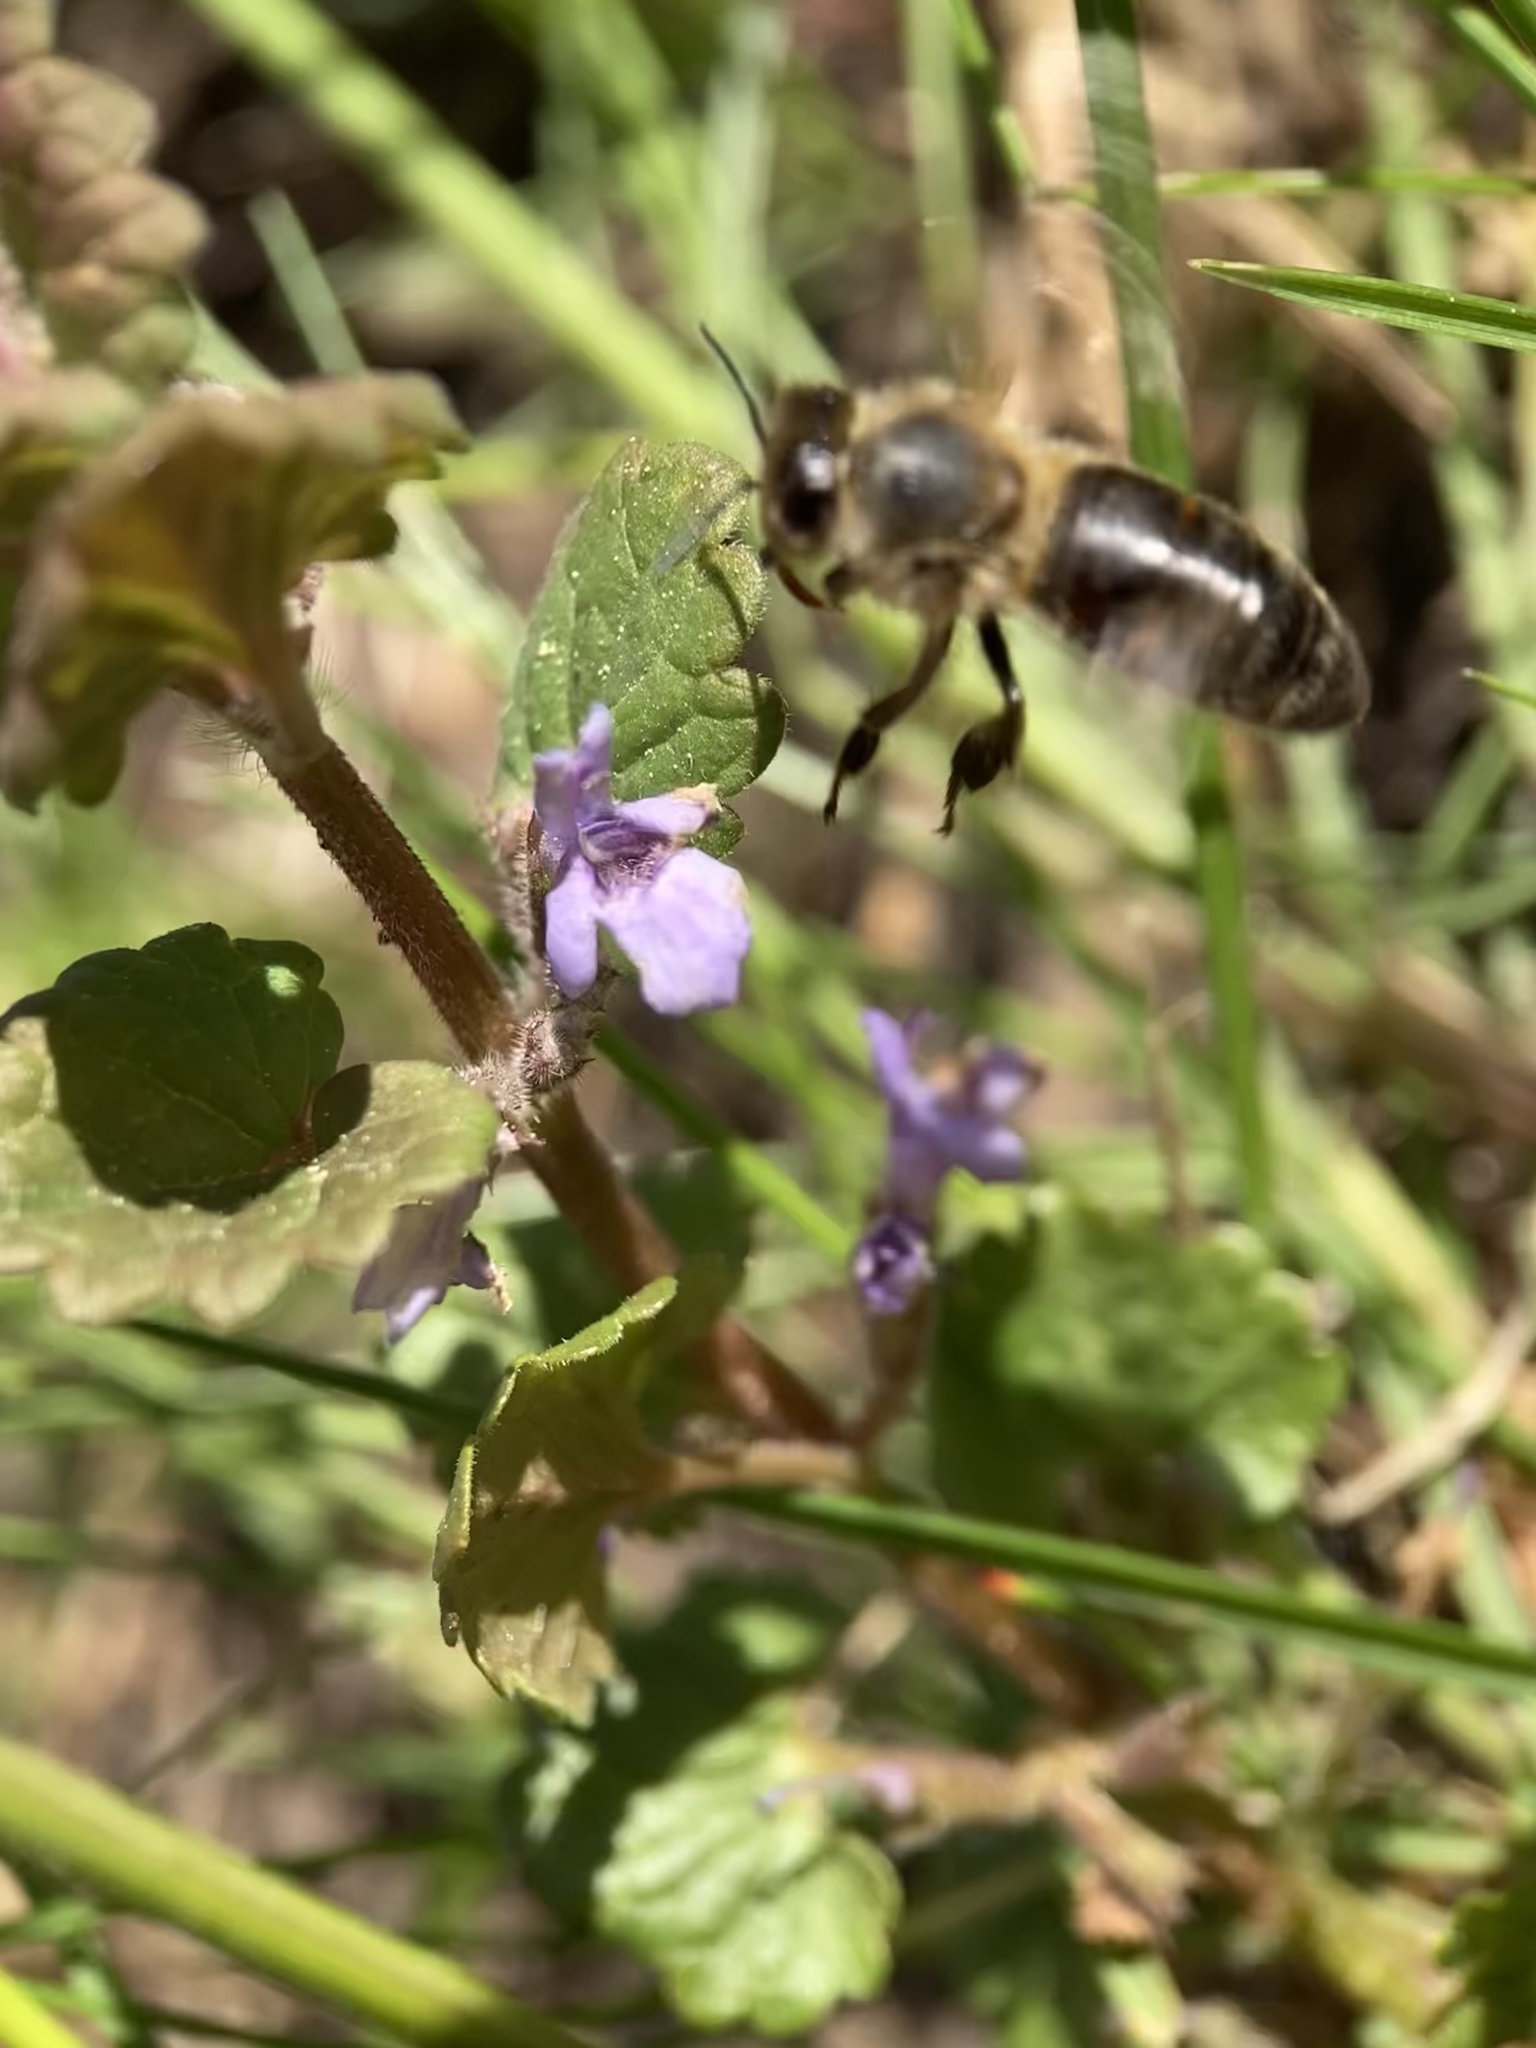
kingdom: Animalia
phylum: Arthropoda
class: Insecta
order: Hymenoptera
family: Apidae
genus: Apis
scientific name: Apis mellifera
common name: Honey bee
